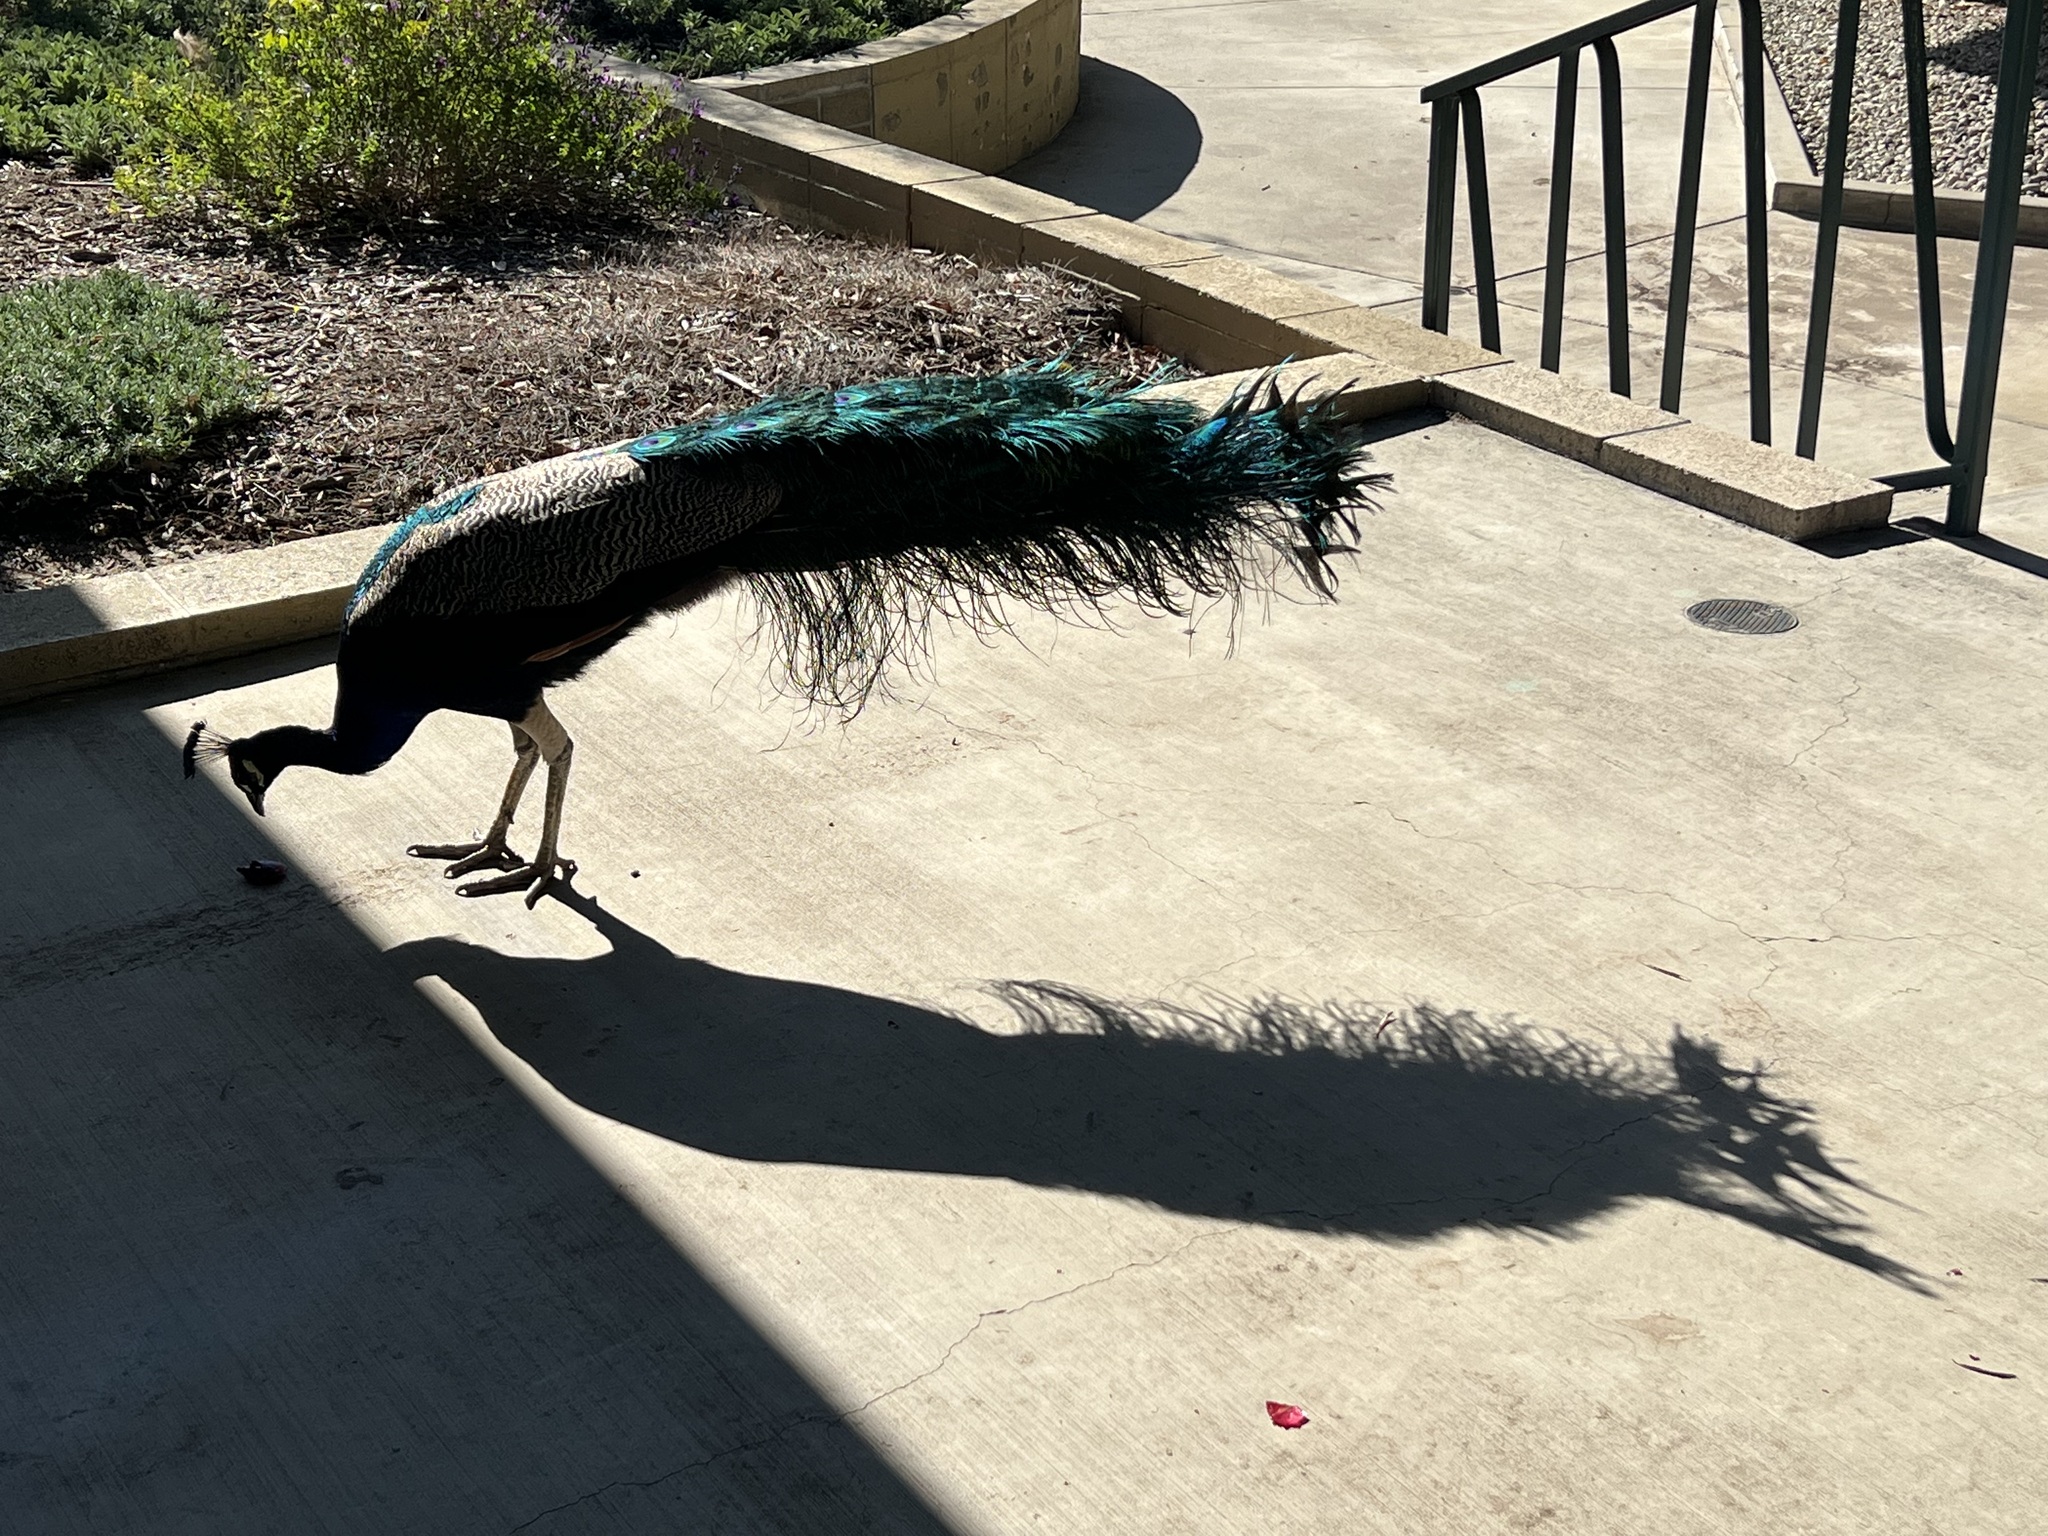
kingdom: Animalia
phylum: Chordata
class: Aves
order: Galliformes
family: Phasianidae
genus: Pavo
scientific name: Pavo cristatus
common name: Indian peafowl
